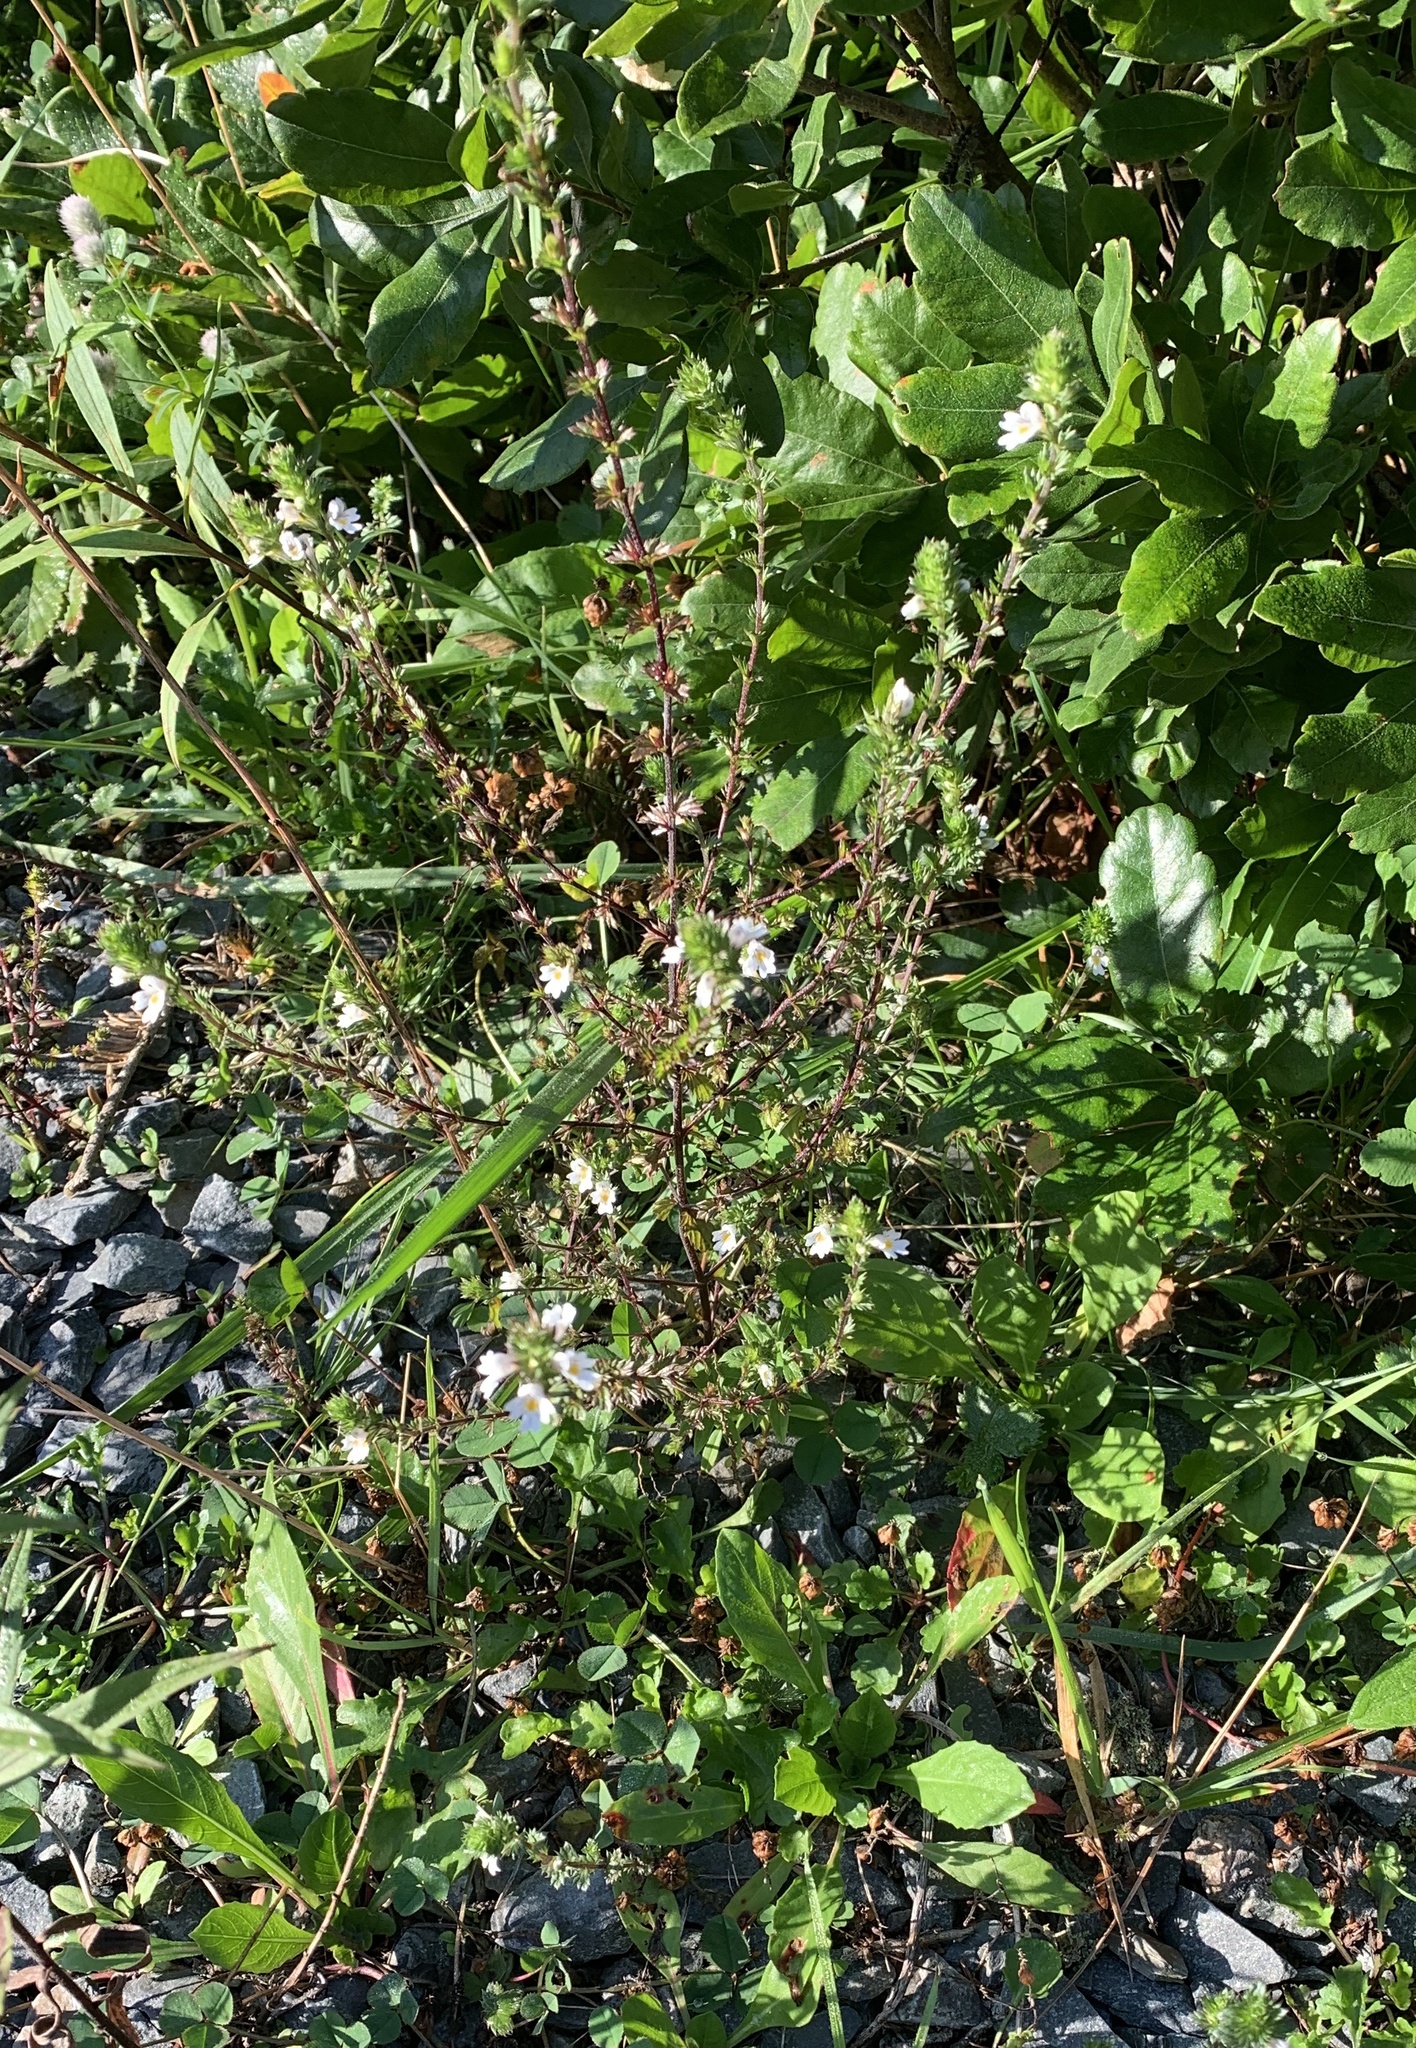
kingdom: Plantae
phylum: Tracheophyta
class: Magnoliopsida
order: Lamiales
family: Orobanchaceae
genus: Euphrasia
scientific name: Euphrasia nemorosa
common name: Common eyebright
